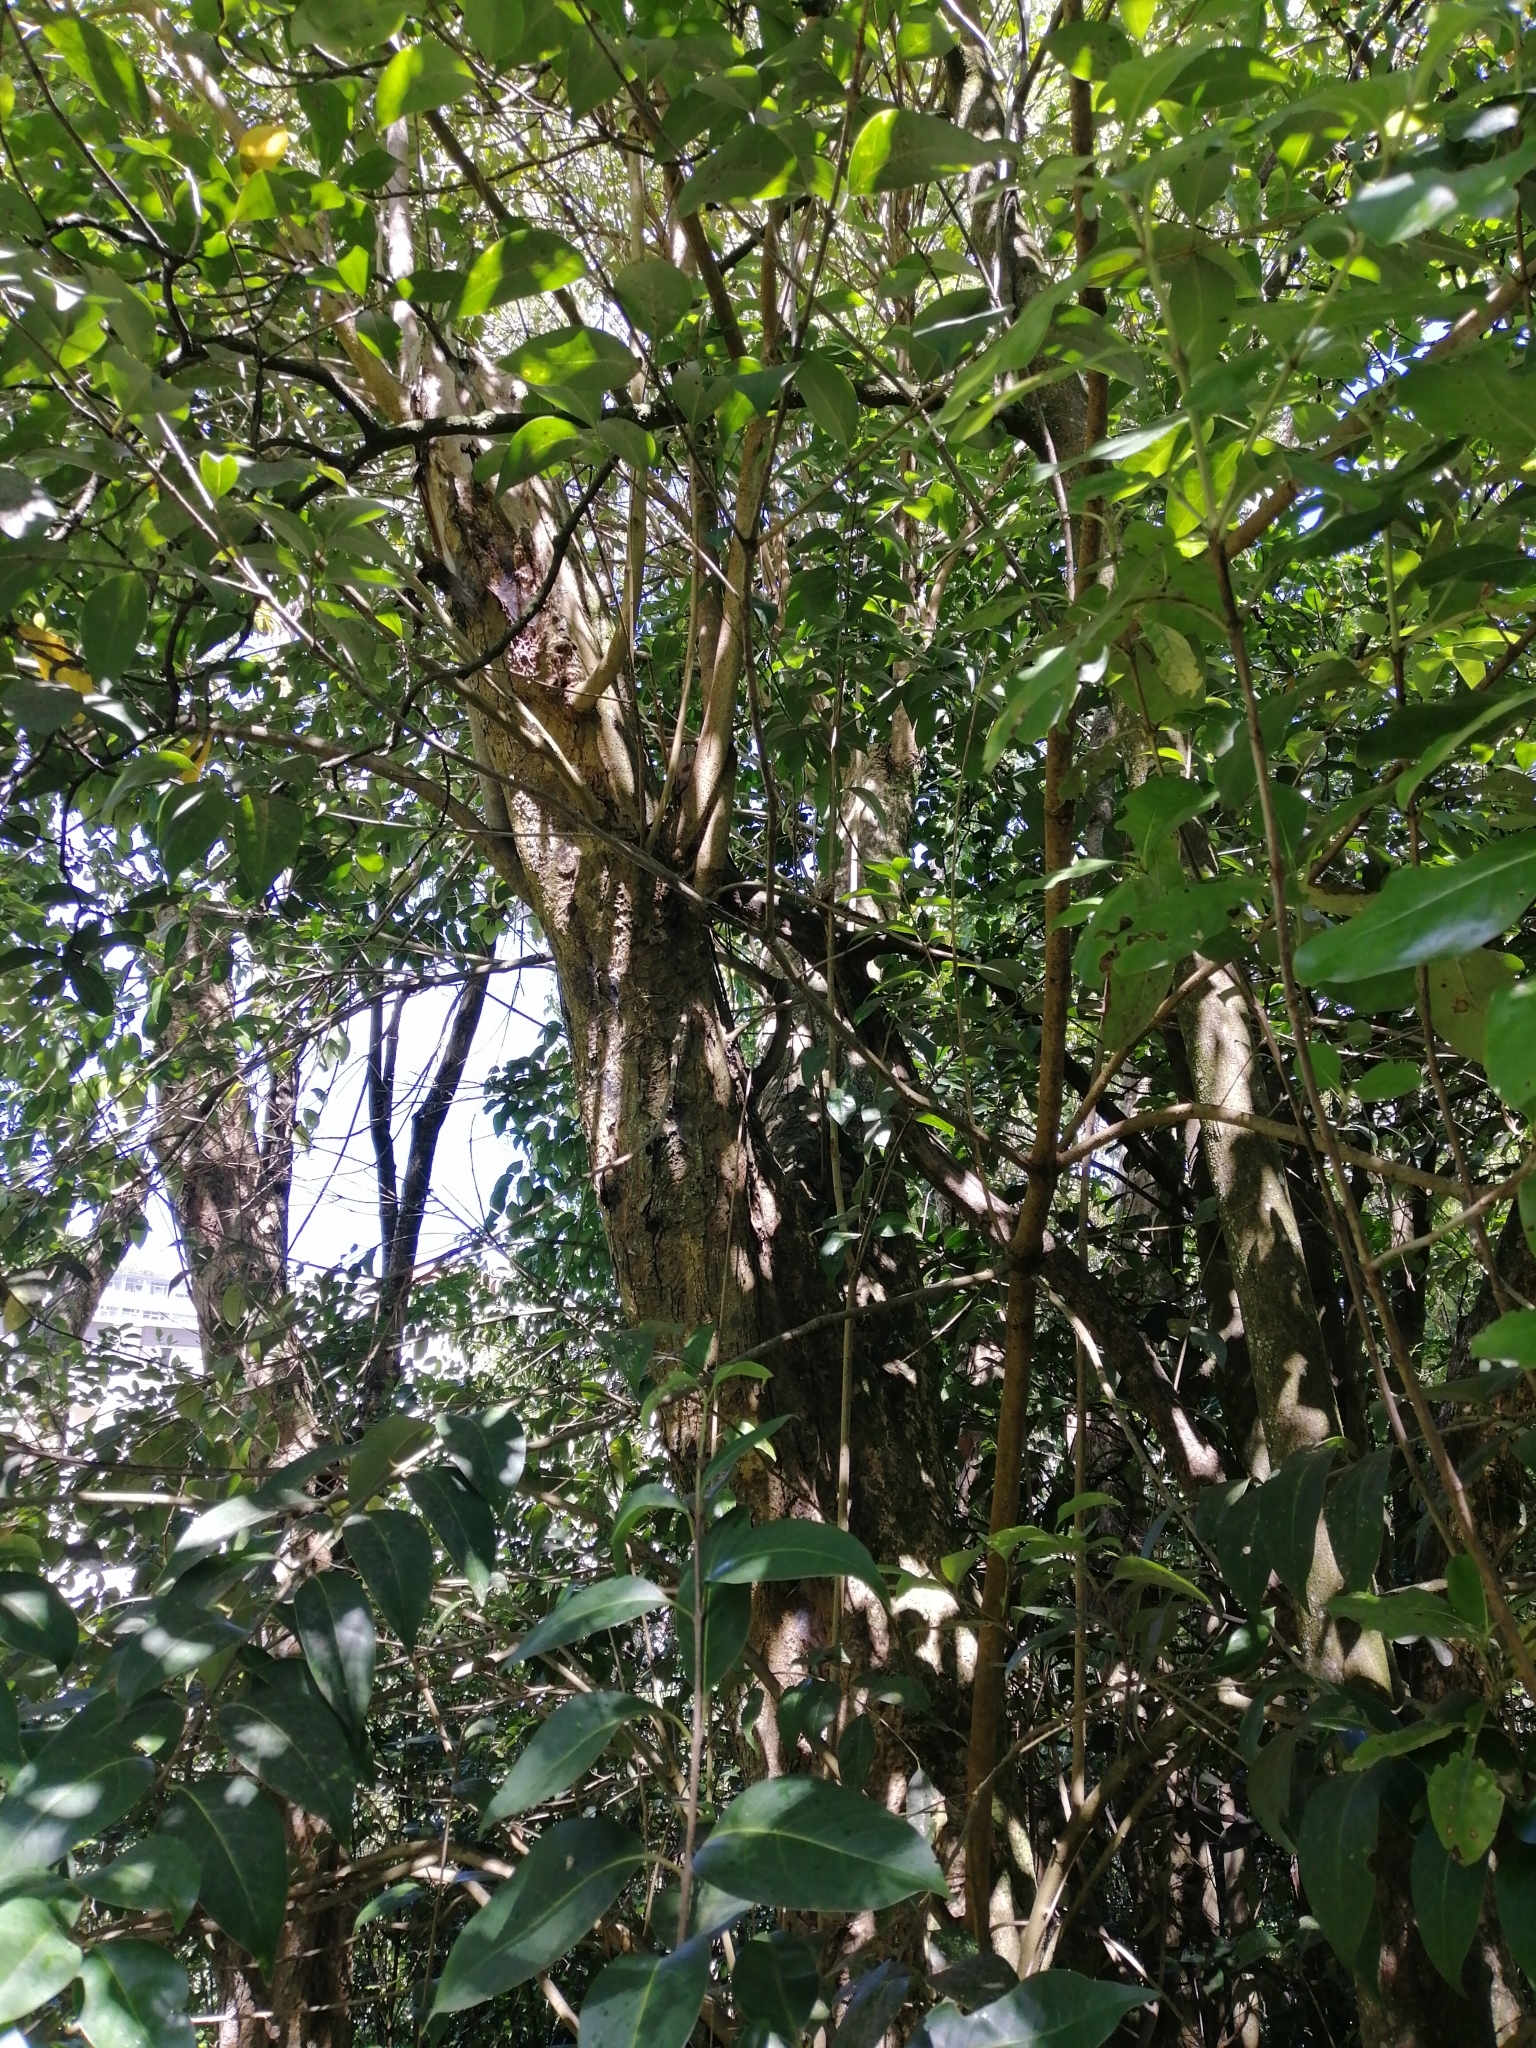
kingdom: Plantae
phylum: Tracheophyta
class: Magnoliopsida
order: Lamiales
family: Oleaceae
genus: Ligustrum
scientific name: Ligustrum lucidum
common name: Glossy privet
